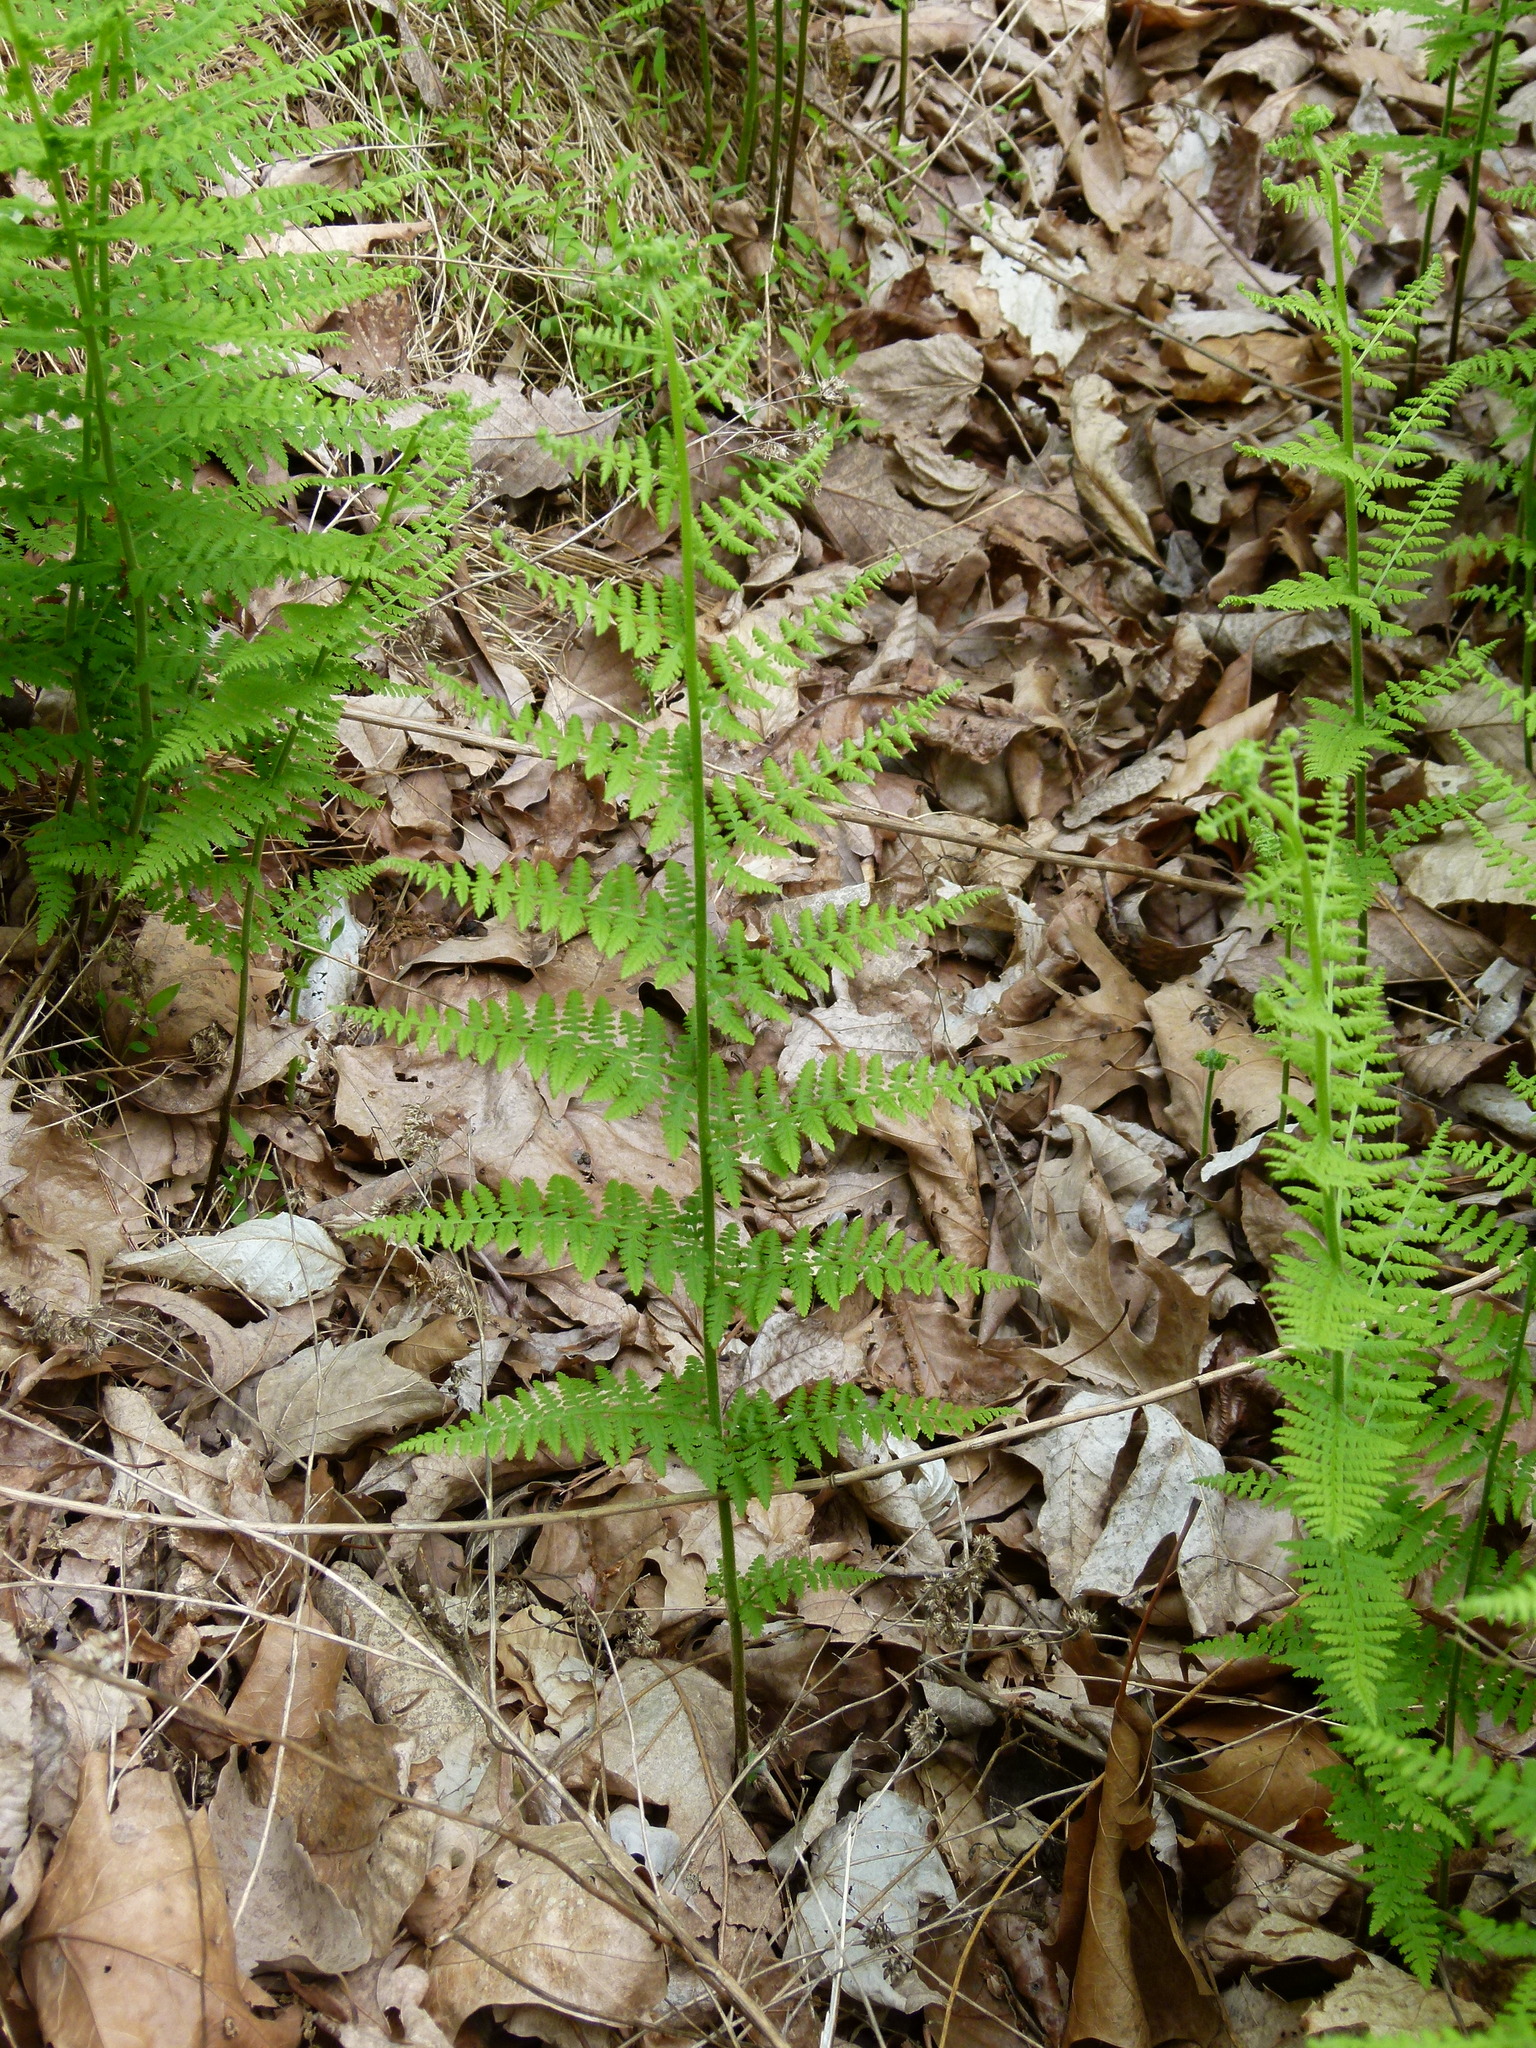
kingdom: Plantae
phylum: Tracheophyta
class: Polypodiopsida
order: Polypodiales
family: Dennstaedtiaceae
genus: Sitobolium
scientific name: Sitobolium punctilobum
